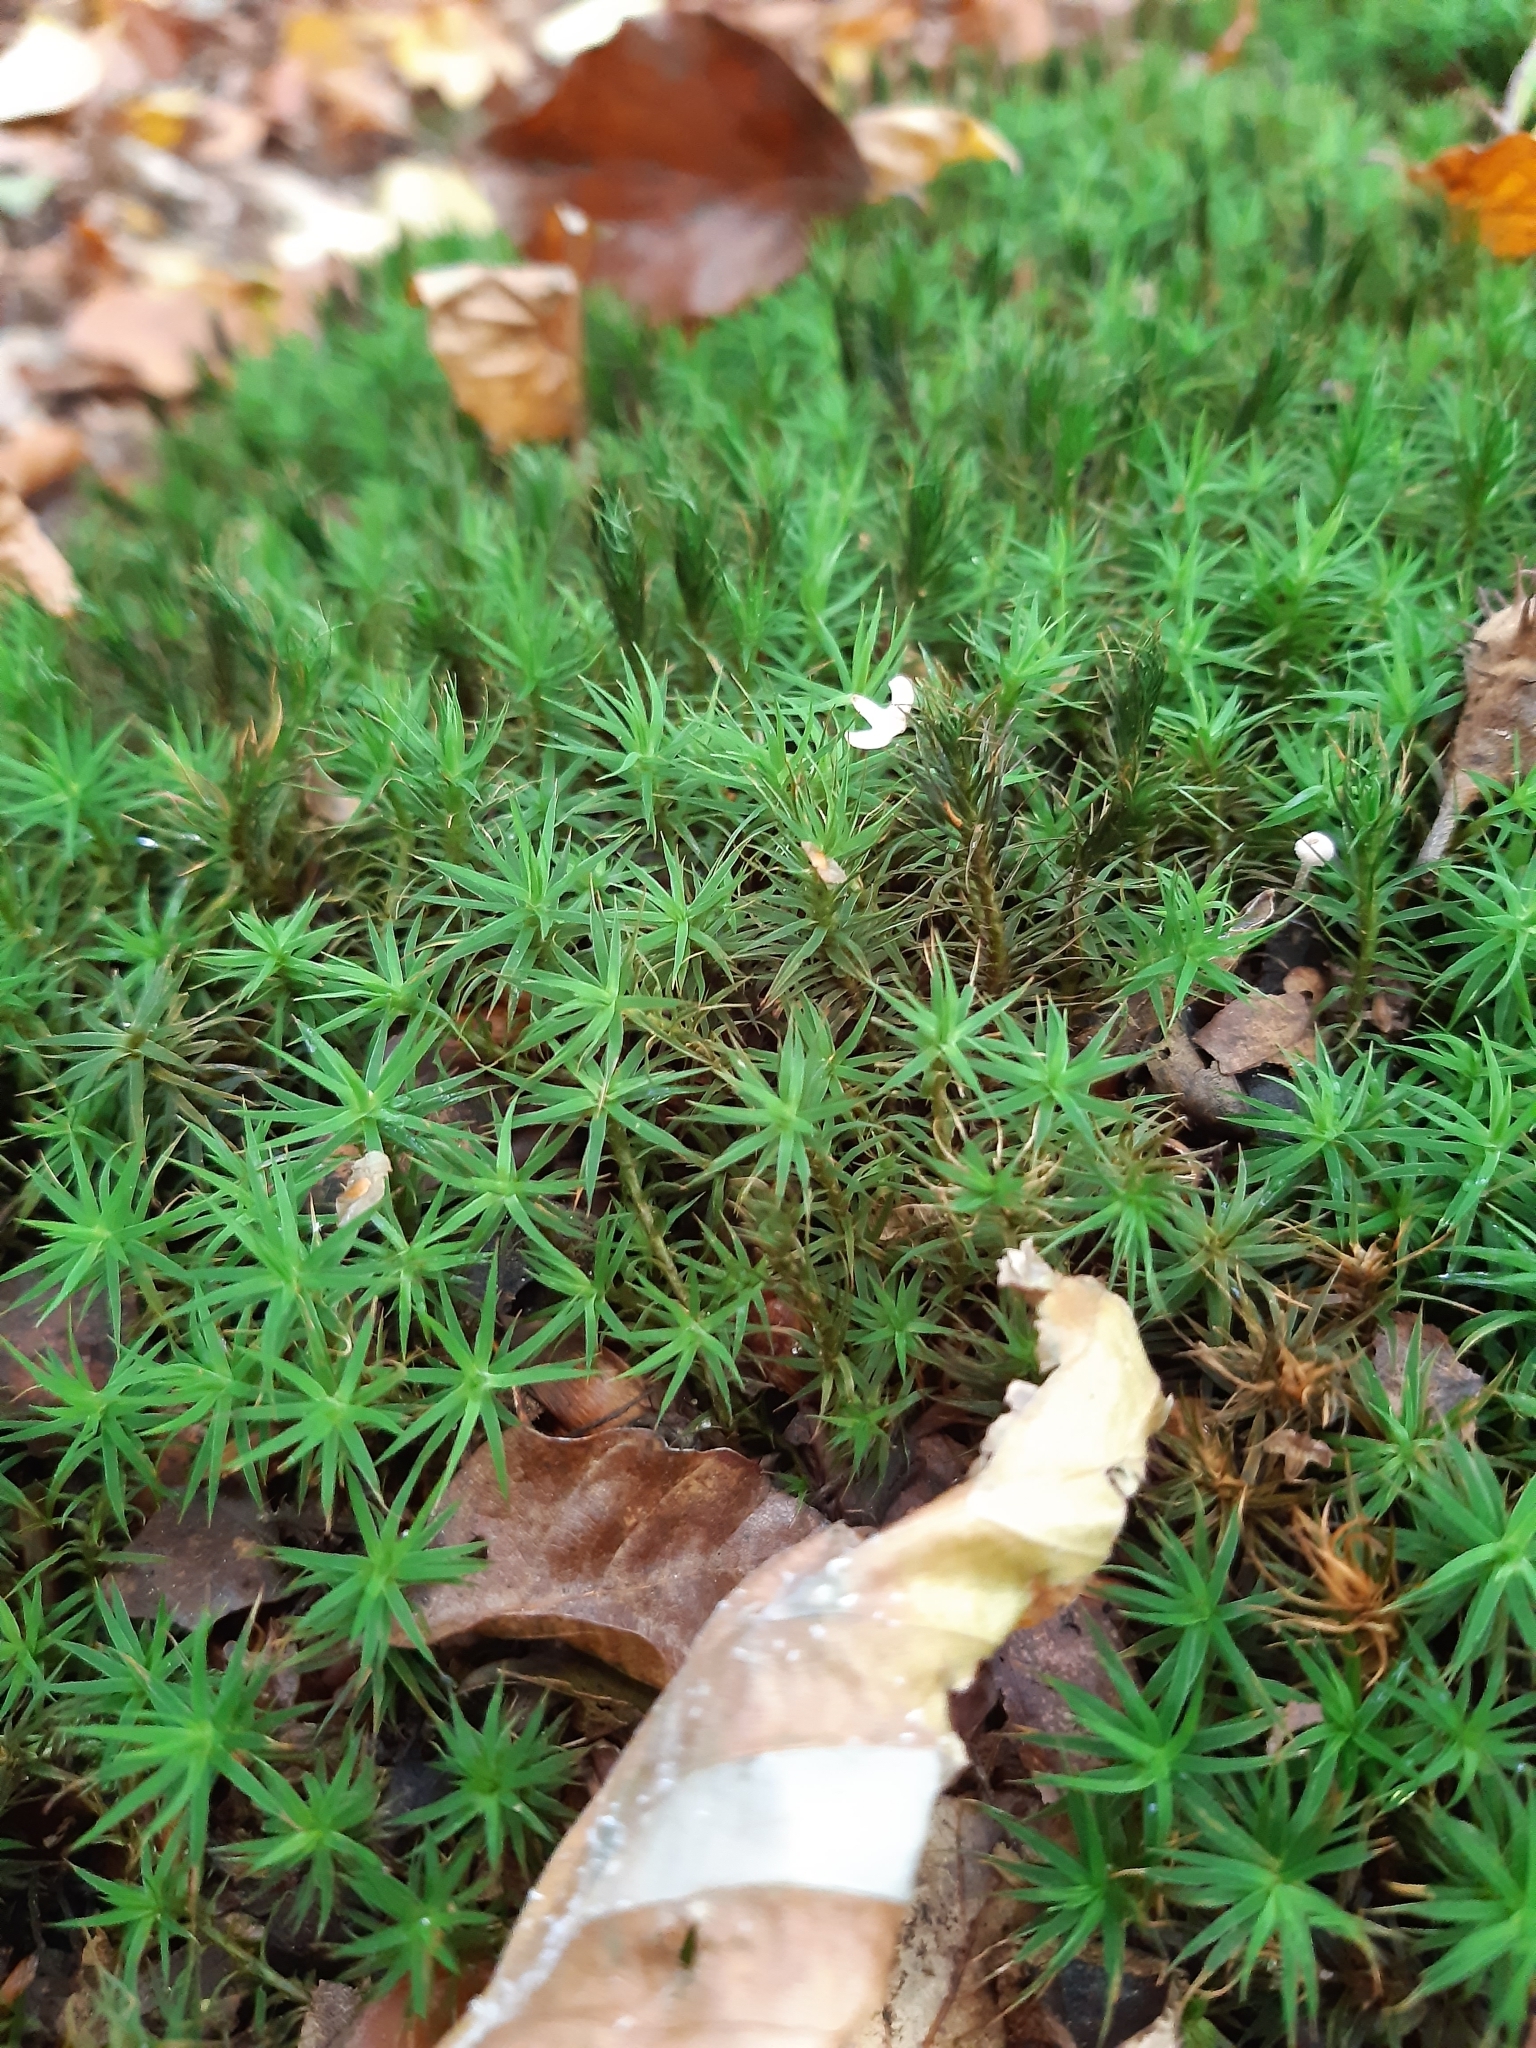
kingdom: Plantae
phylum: Bryophyta
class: Polytrichopsida
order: Polytrichales
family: Polytrichaceae
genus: Polytrichum
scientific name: Polytrichum formosum
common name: Bank haircap moss
